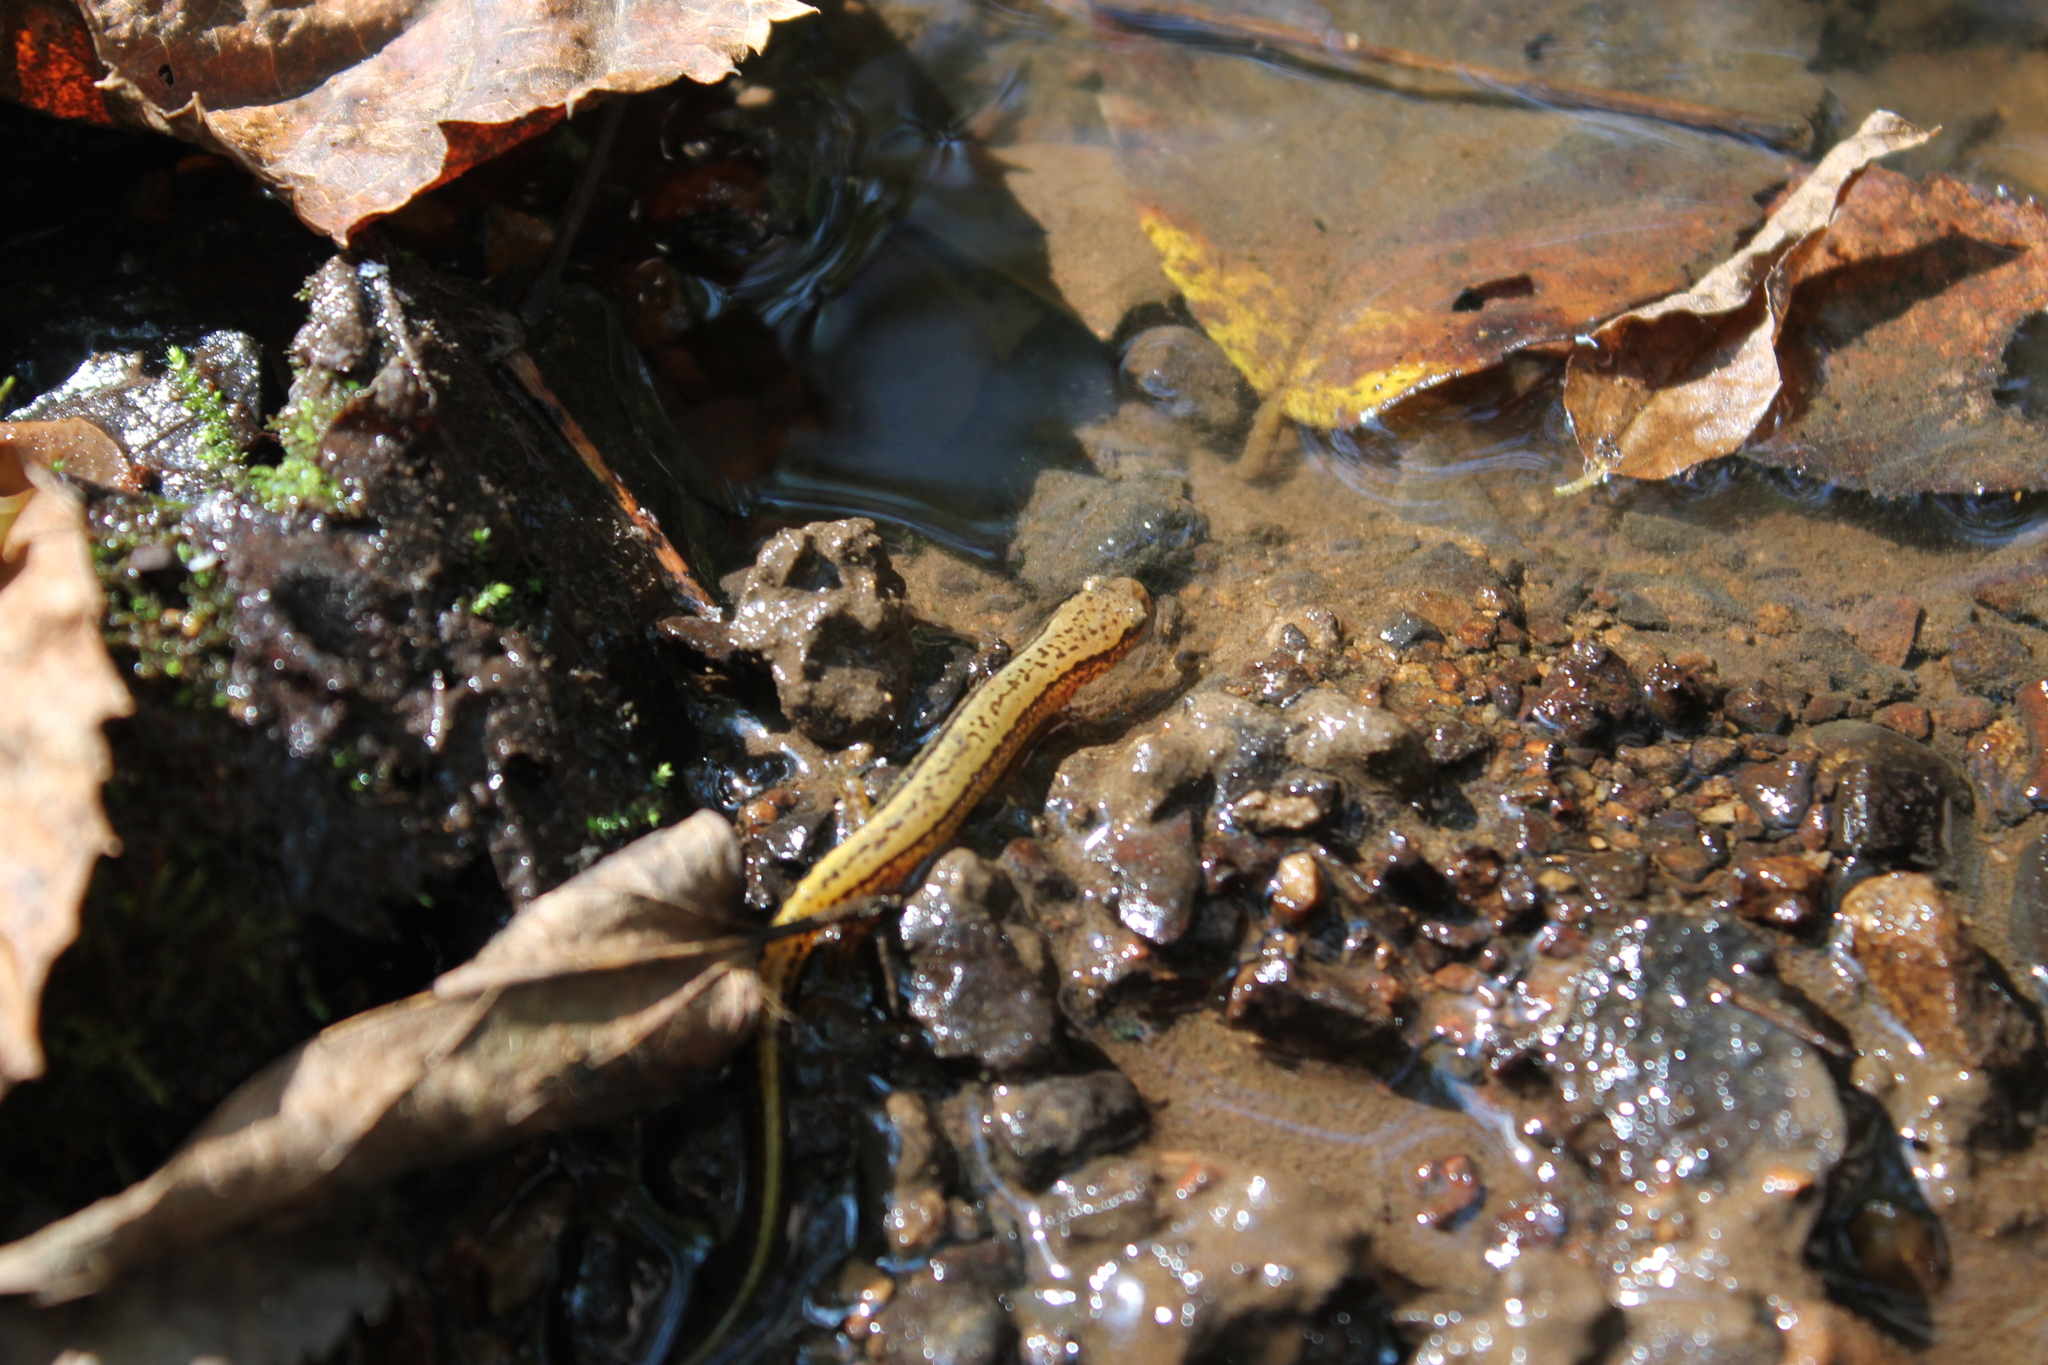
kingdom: Animalia
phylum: Chordata
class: Amphibia
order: Caudata
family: Plethodontidae
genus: Eurycea
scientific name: Eurycea cirrigera
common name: Southern two-lined salamander
